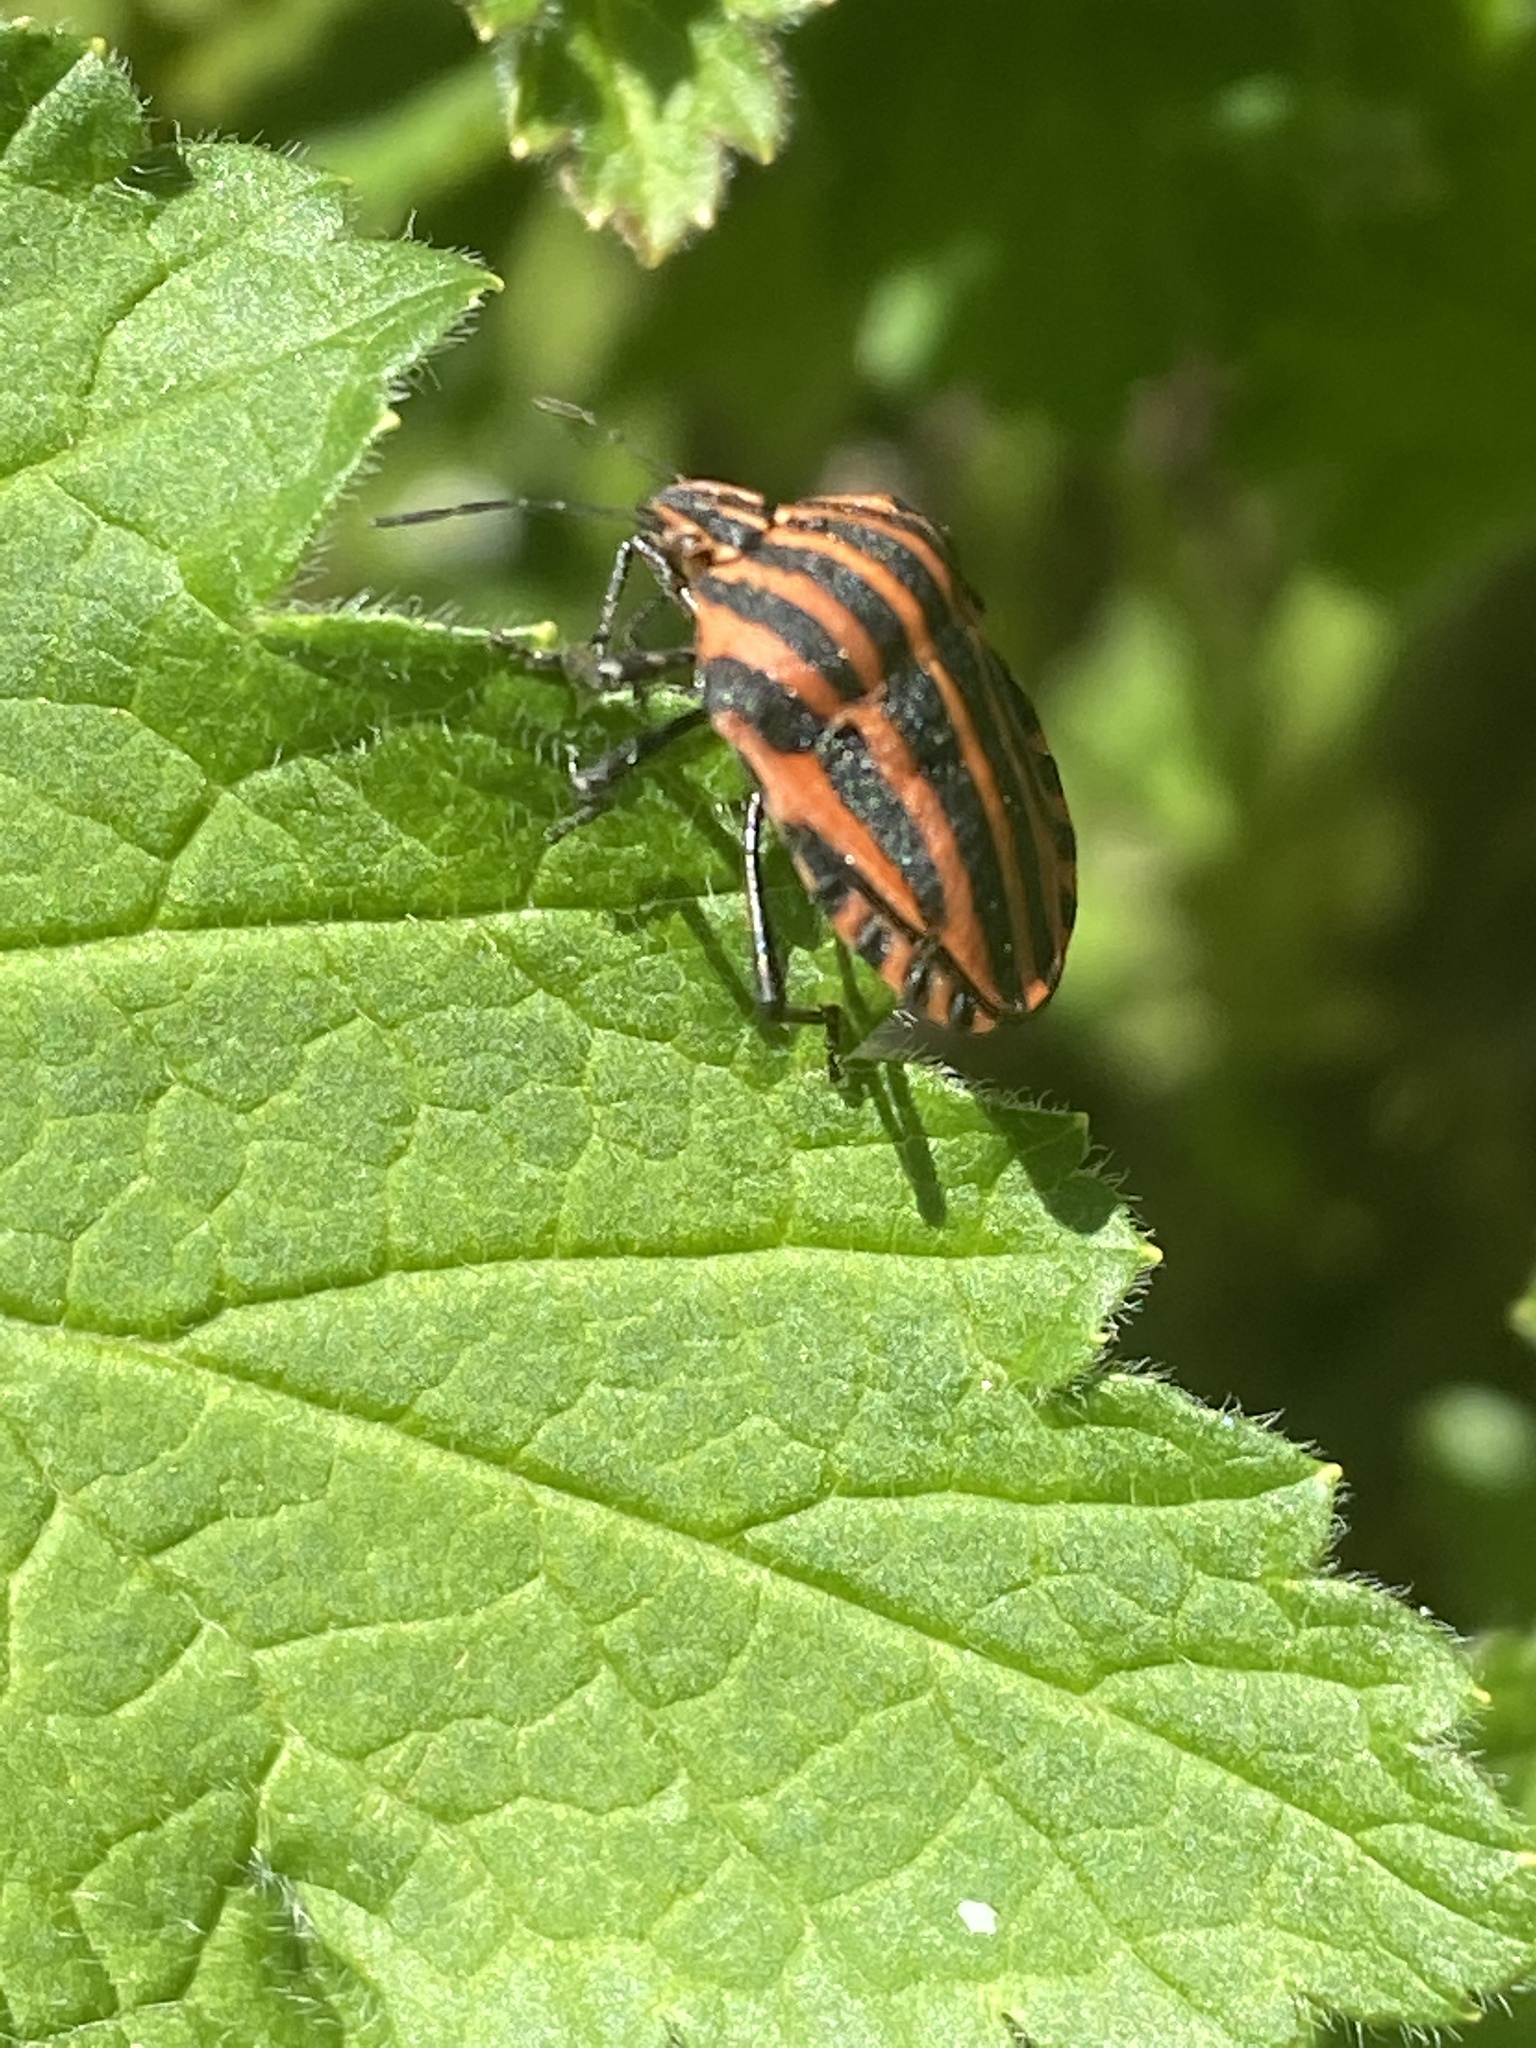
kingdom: Animalia
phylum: Arthropoda
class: Insecta
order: Hemiptera
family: Pentatomidae
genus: Graphosoma
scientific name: Graphosoma italicum
